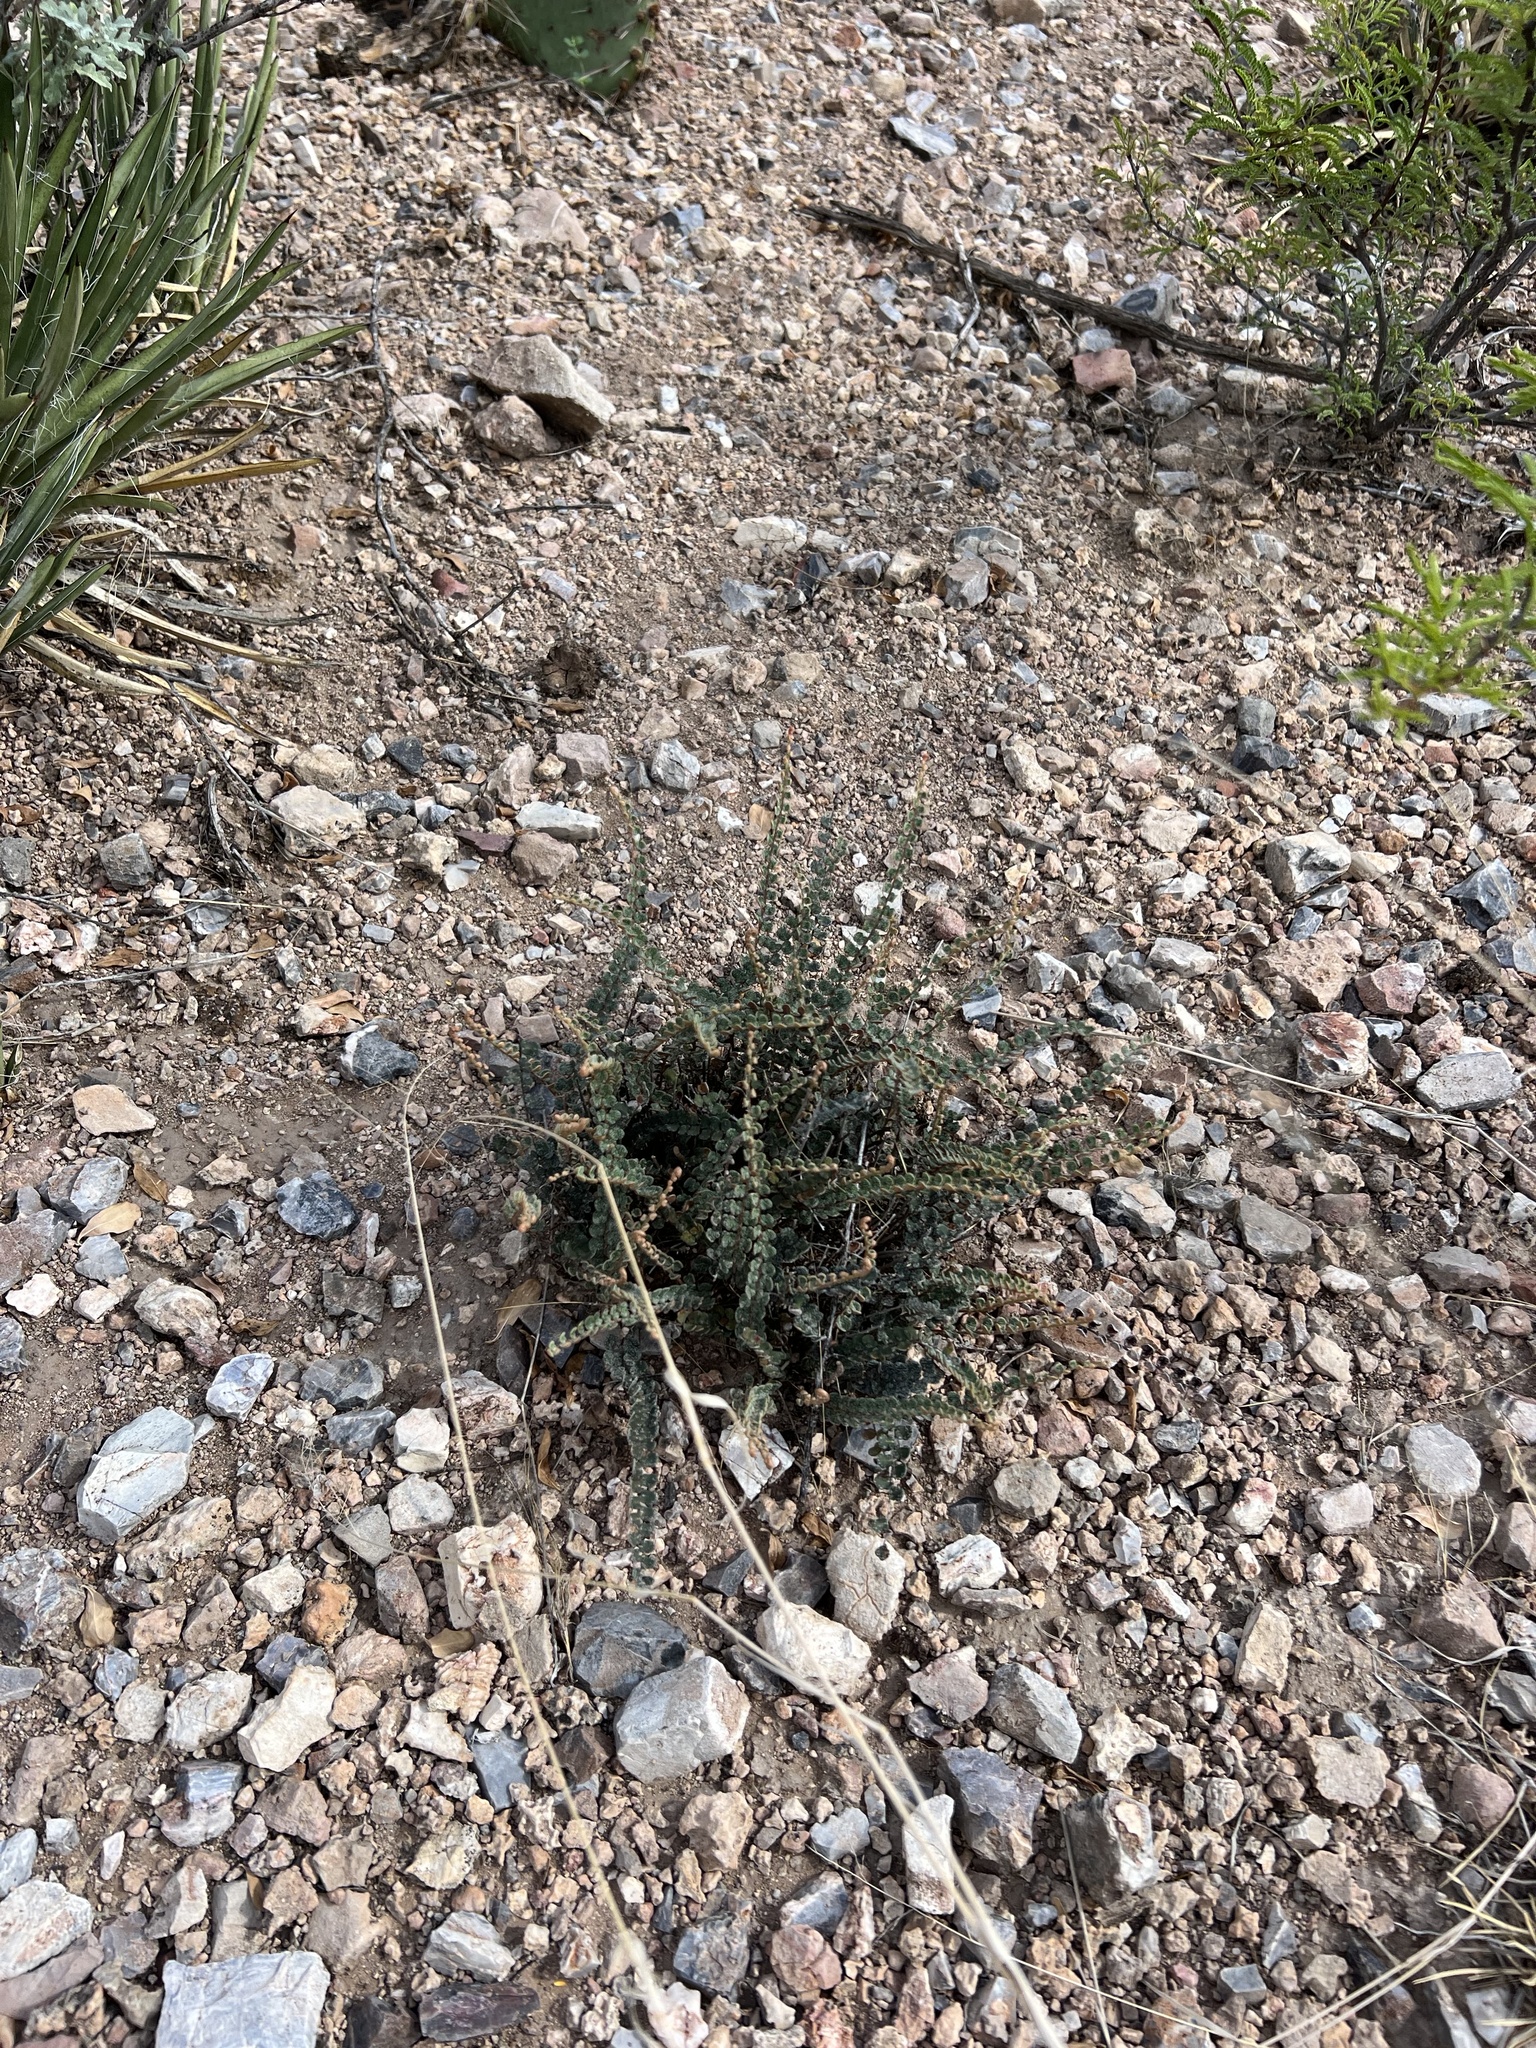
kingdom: Plantae
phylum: Tracheophyta
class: Polypodiopsida
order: Polypodiales
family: Pteridaceae
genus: Astrolepis
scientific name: Astrolepis cochisensis
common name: Scaly cloak fern
